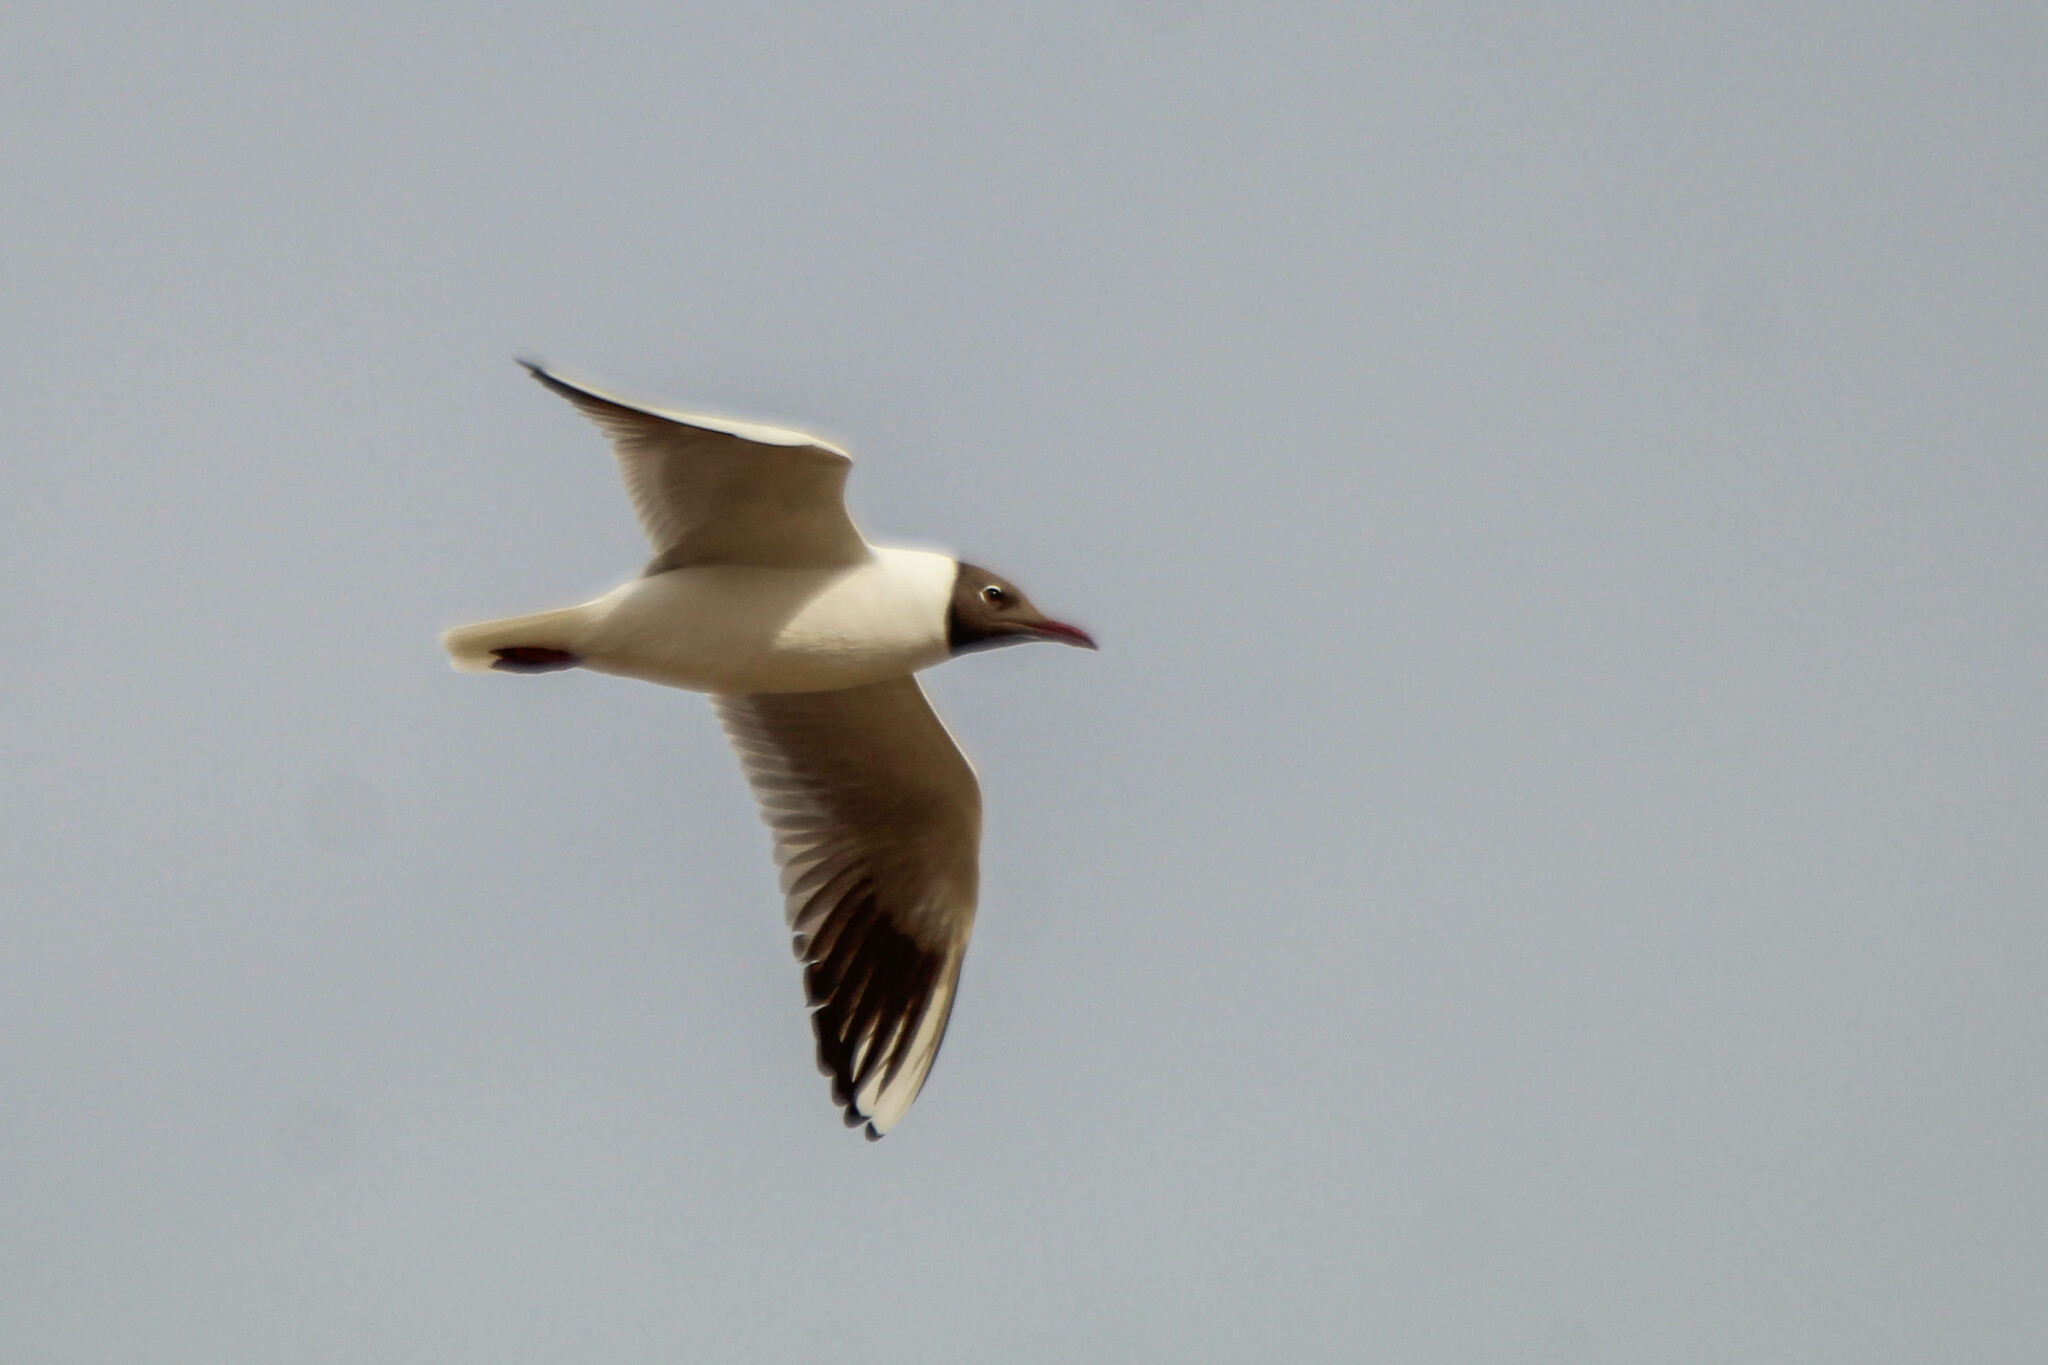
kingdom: Animalia
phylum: Chordata
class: Aves
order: Charadriiformes
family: Laridae
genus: Chroicocephalus
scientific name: Chroicocephalus ridibundus
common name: Black-headed gull
